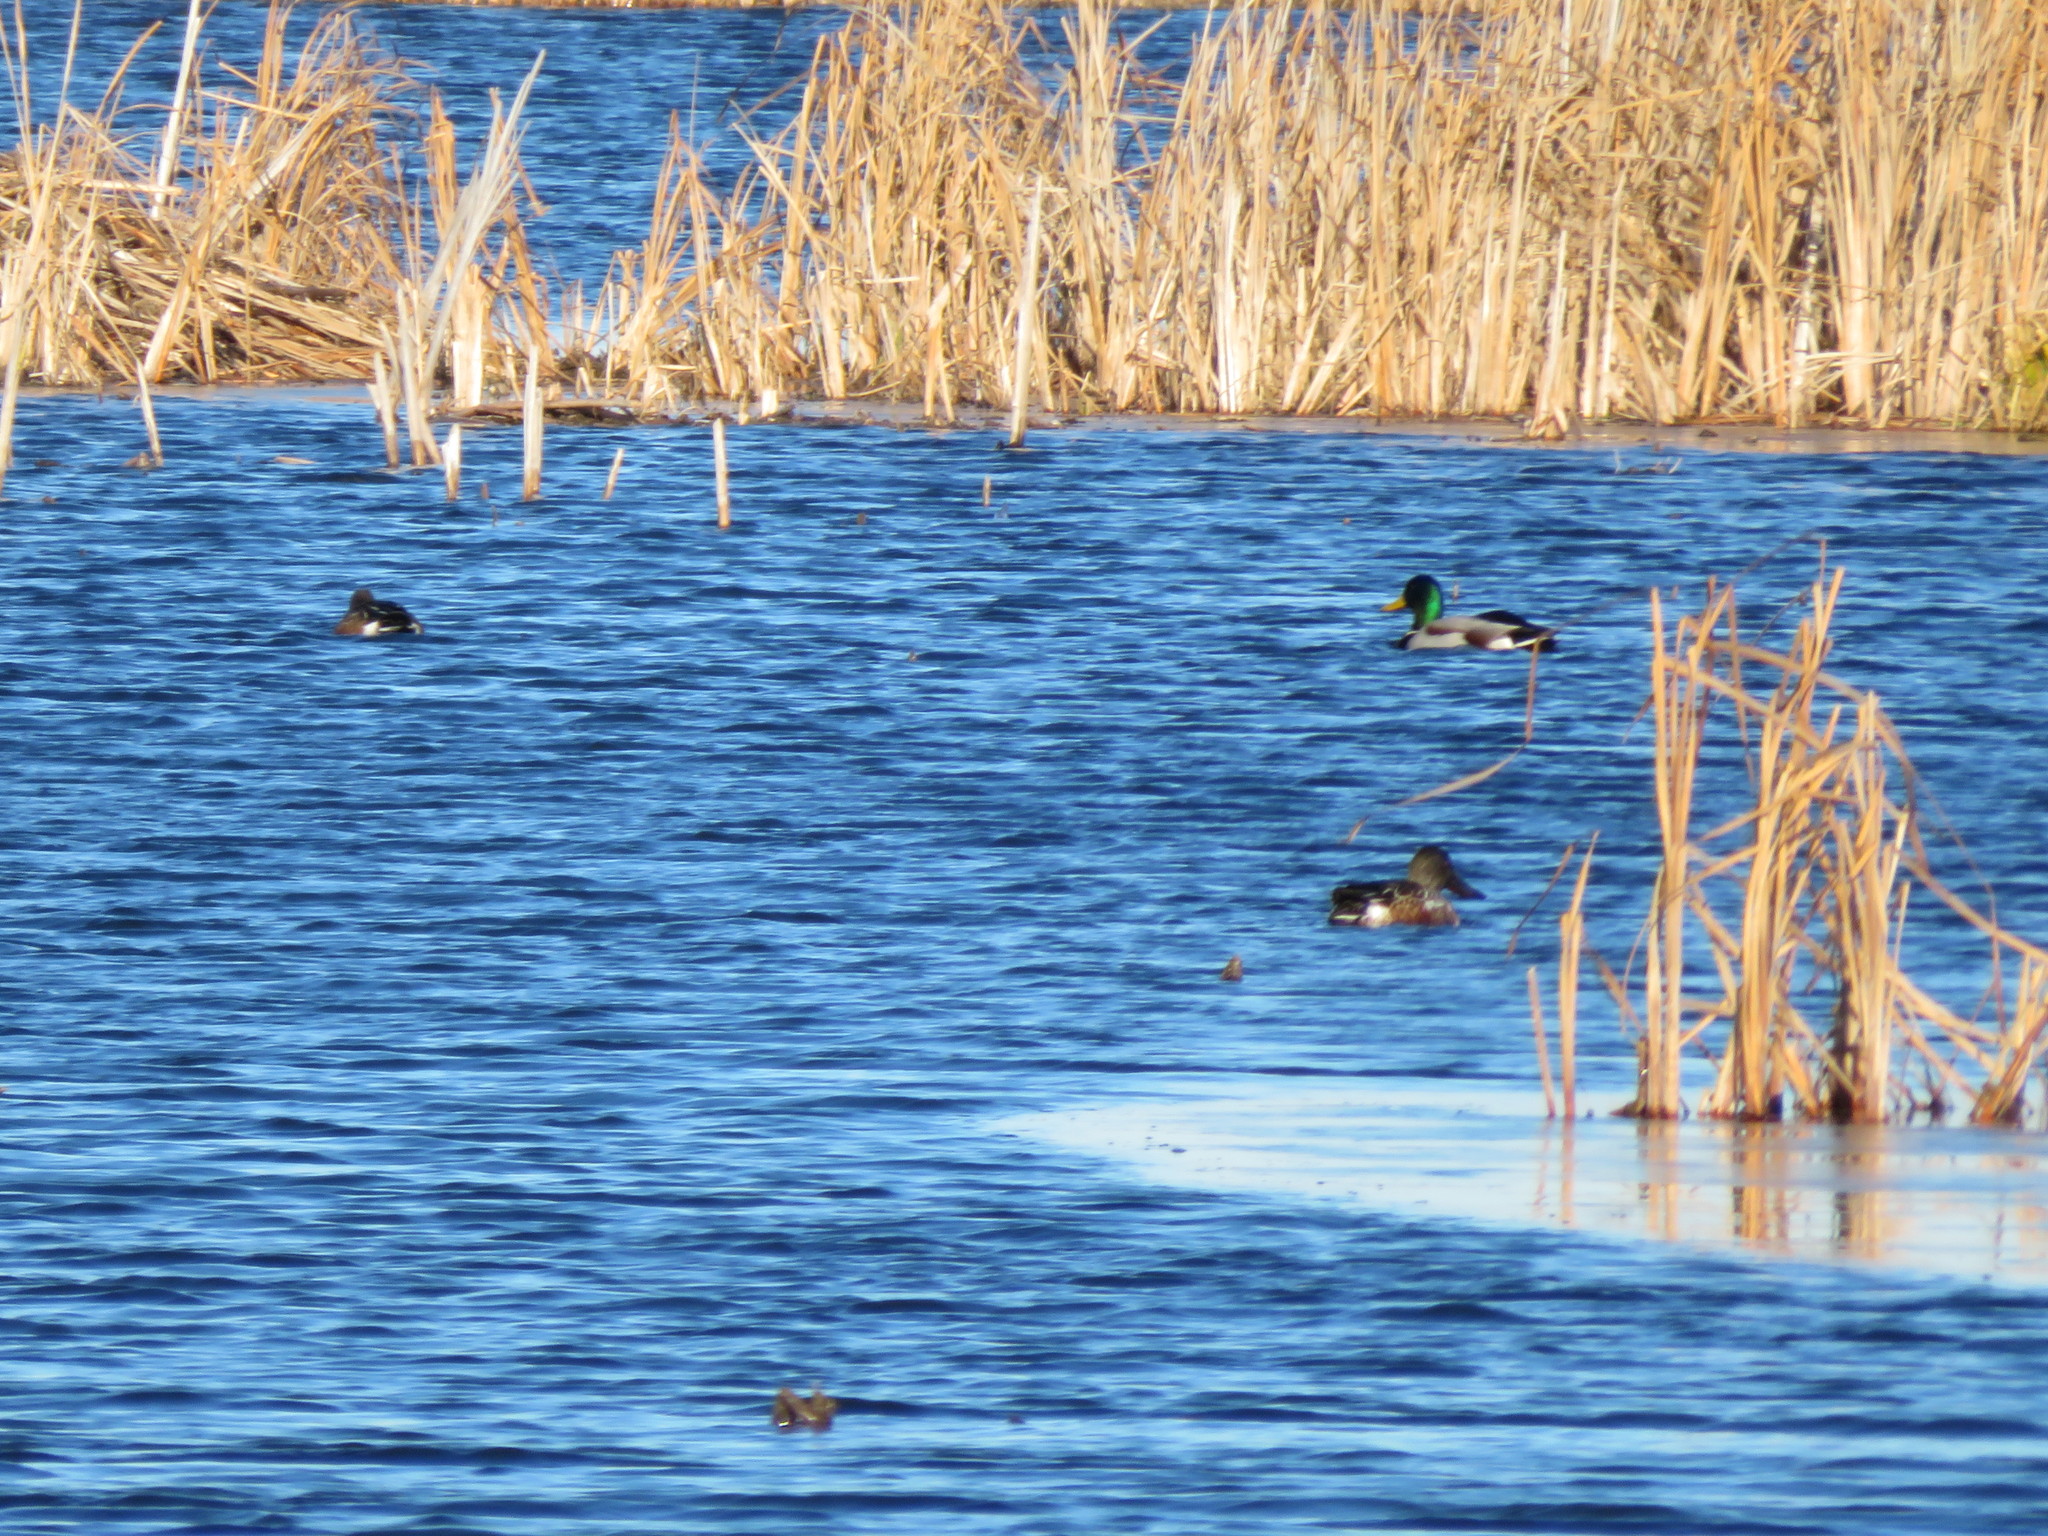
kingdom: Animalia
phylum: Chordata
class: Aves
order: Anseriformes
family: Anatidae
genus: Spatula
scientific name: Spatula clypeata
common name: Northern shoveler
